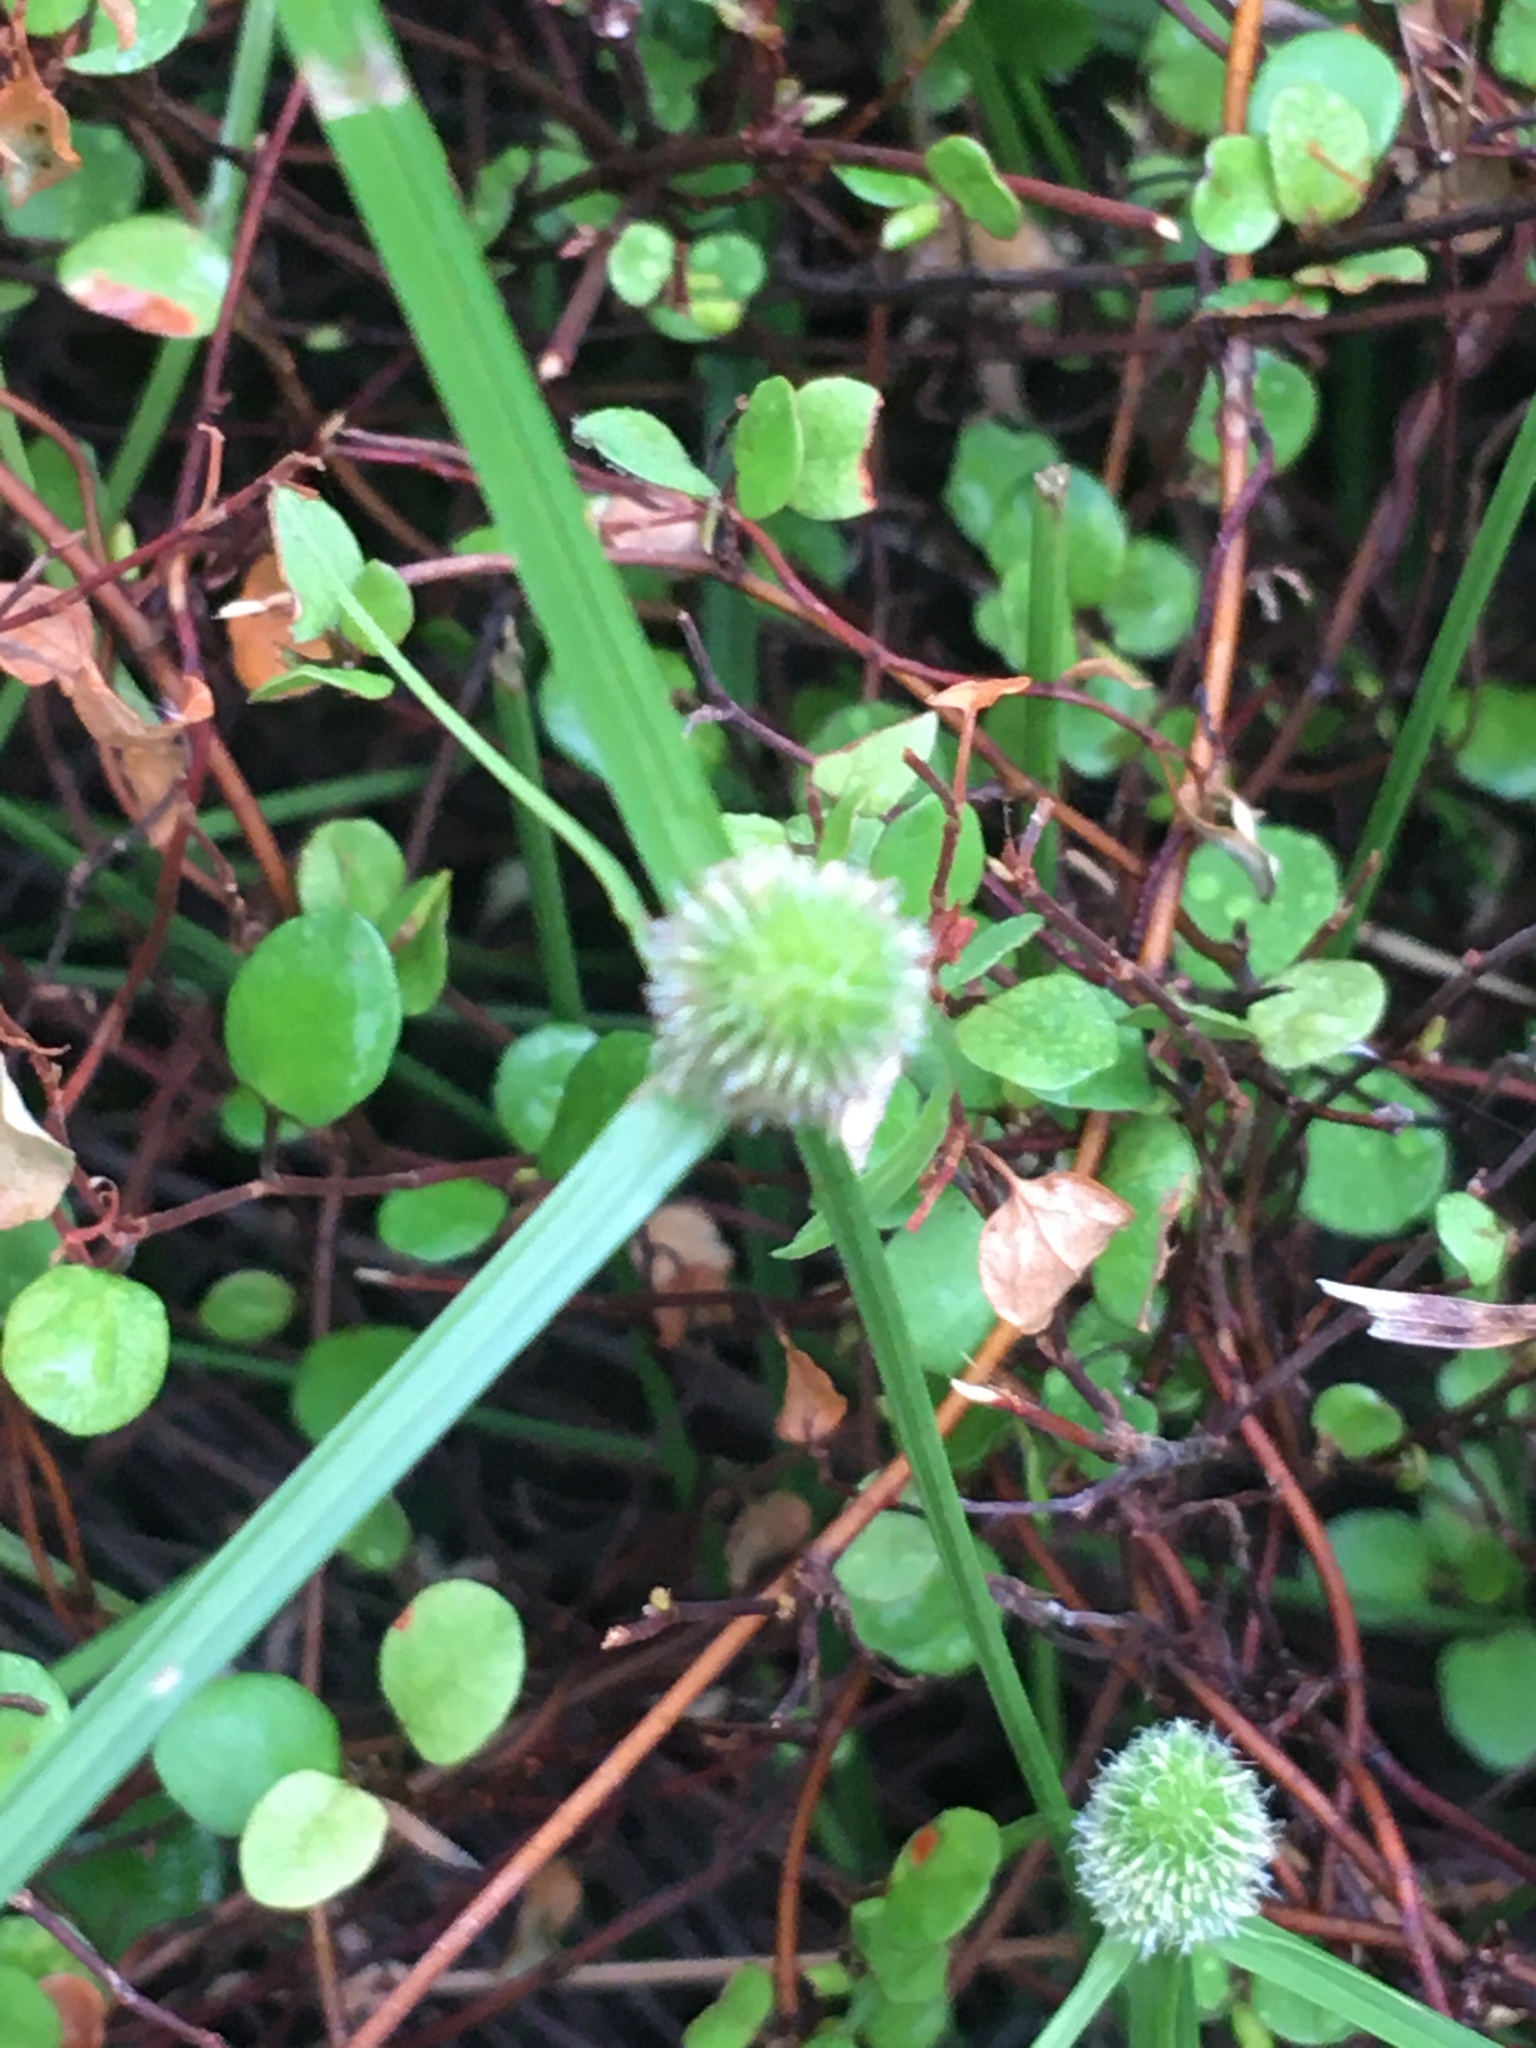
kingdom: Plantae
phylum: Tracheophyta
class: Liliopsida
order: Poales
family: Cyperaceae
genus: Cyperus
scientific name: Cyperus brevifolius
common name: Globe kyllinga
